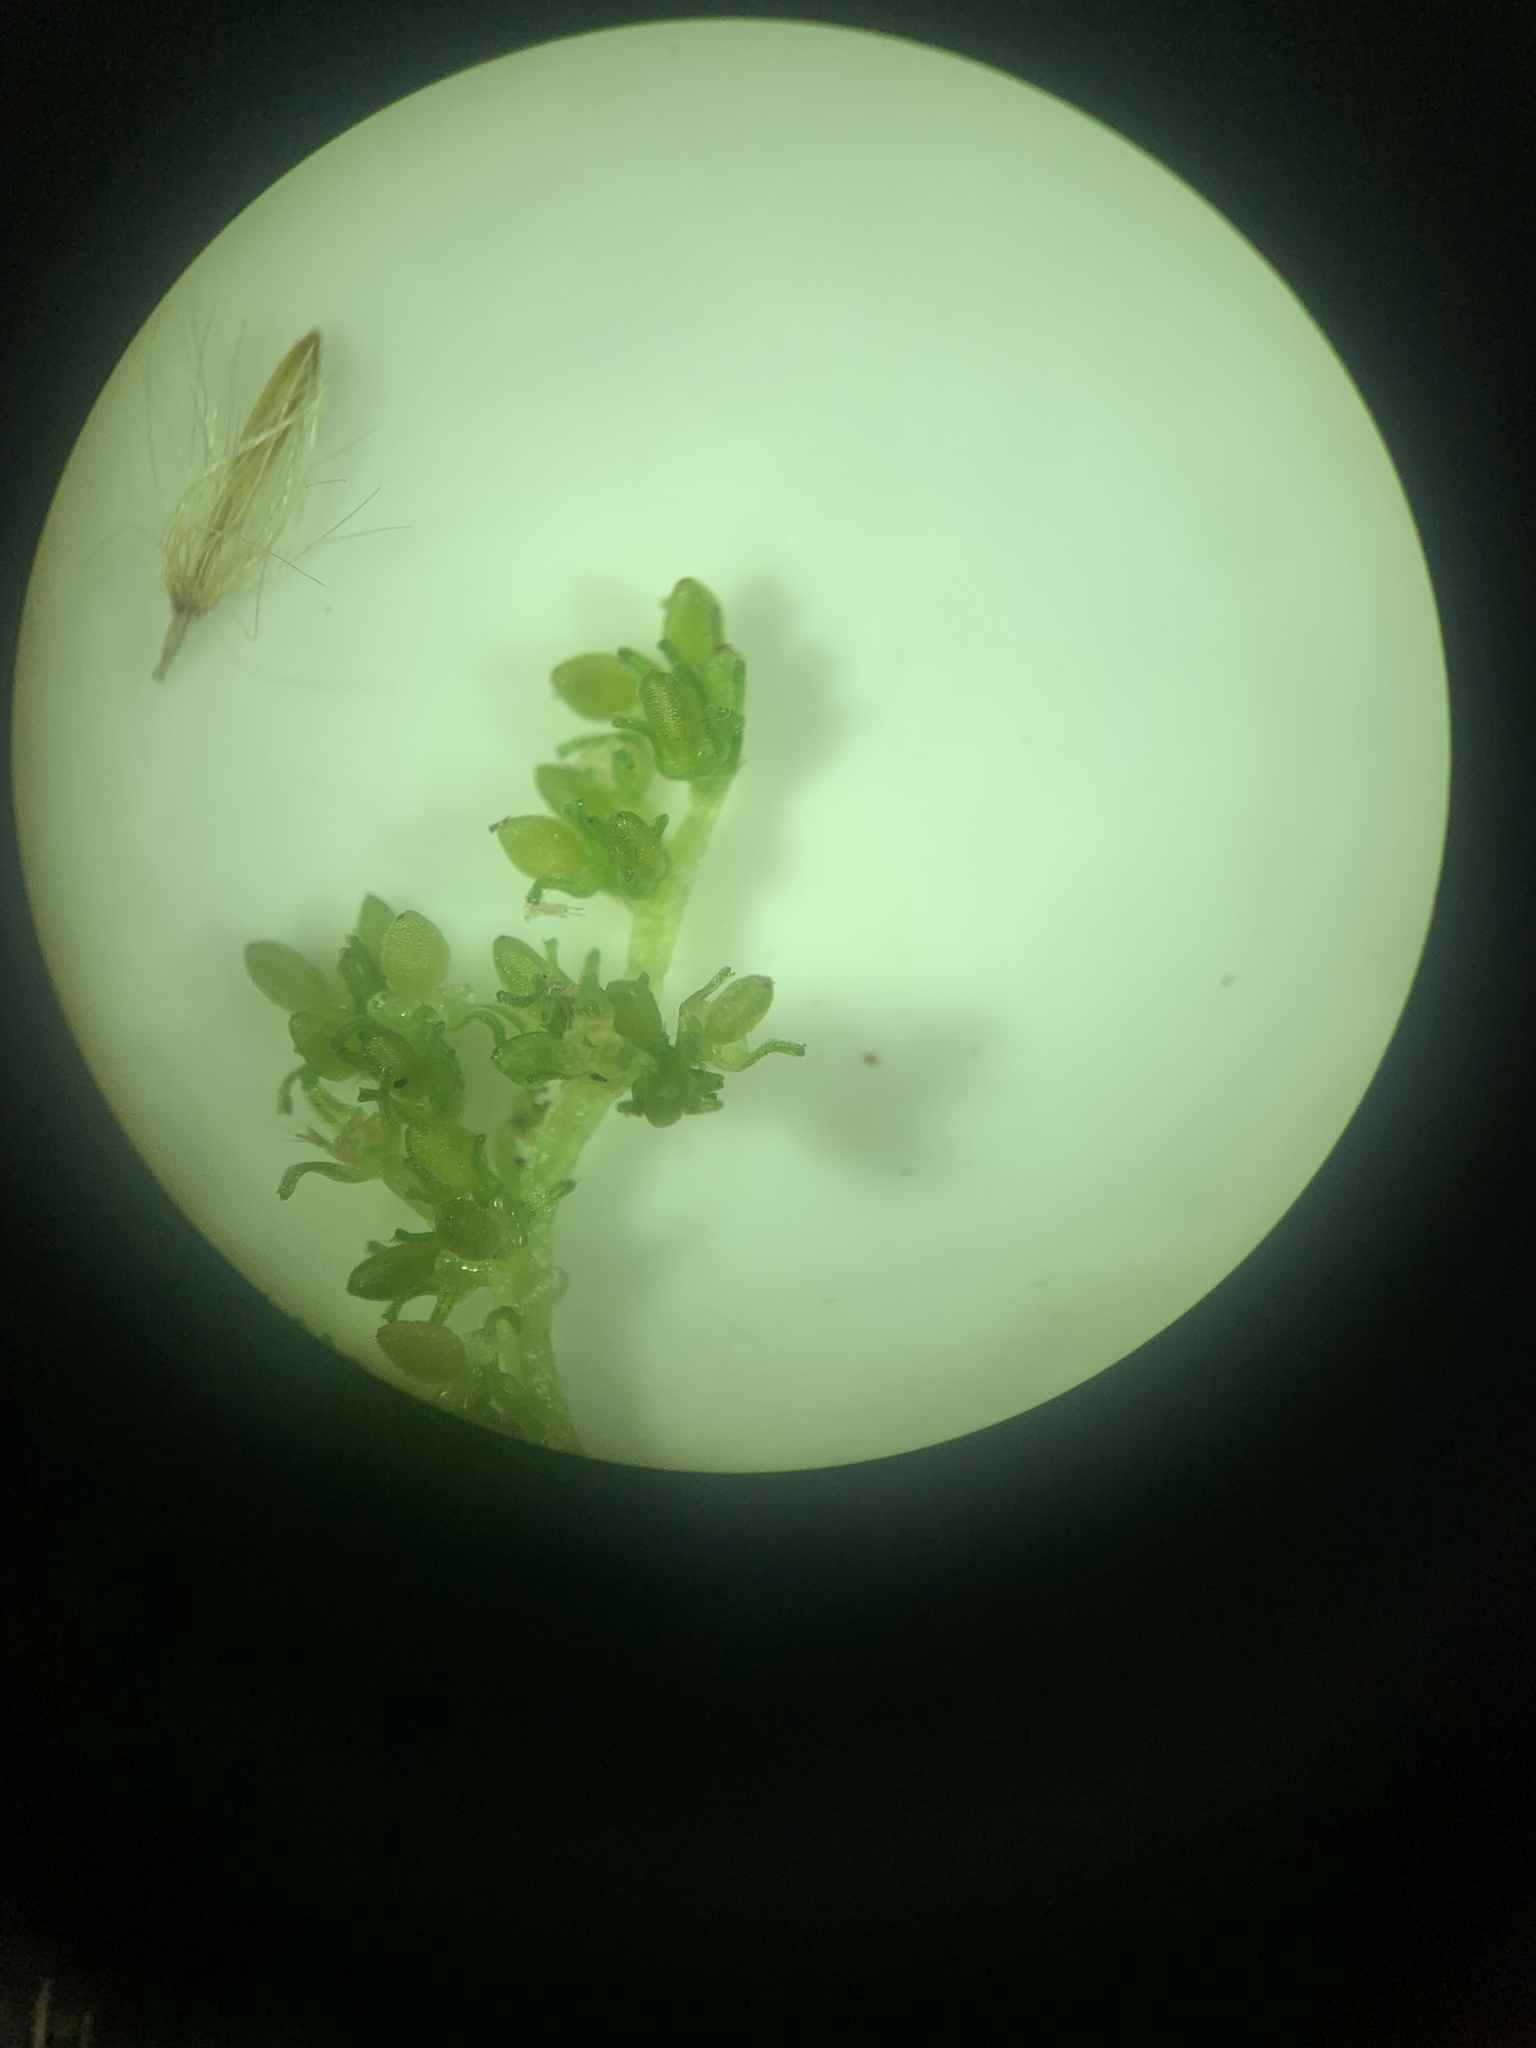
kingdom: Plantae
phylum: Tracheophyta
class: Magnoliopsida
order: Rosales
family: Urticaceae
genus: Pilea
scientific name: Pilea pumila
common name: Clearweed
